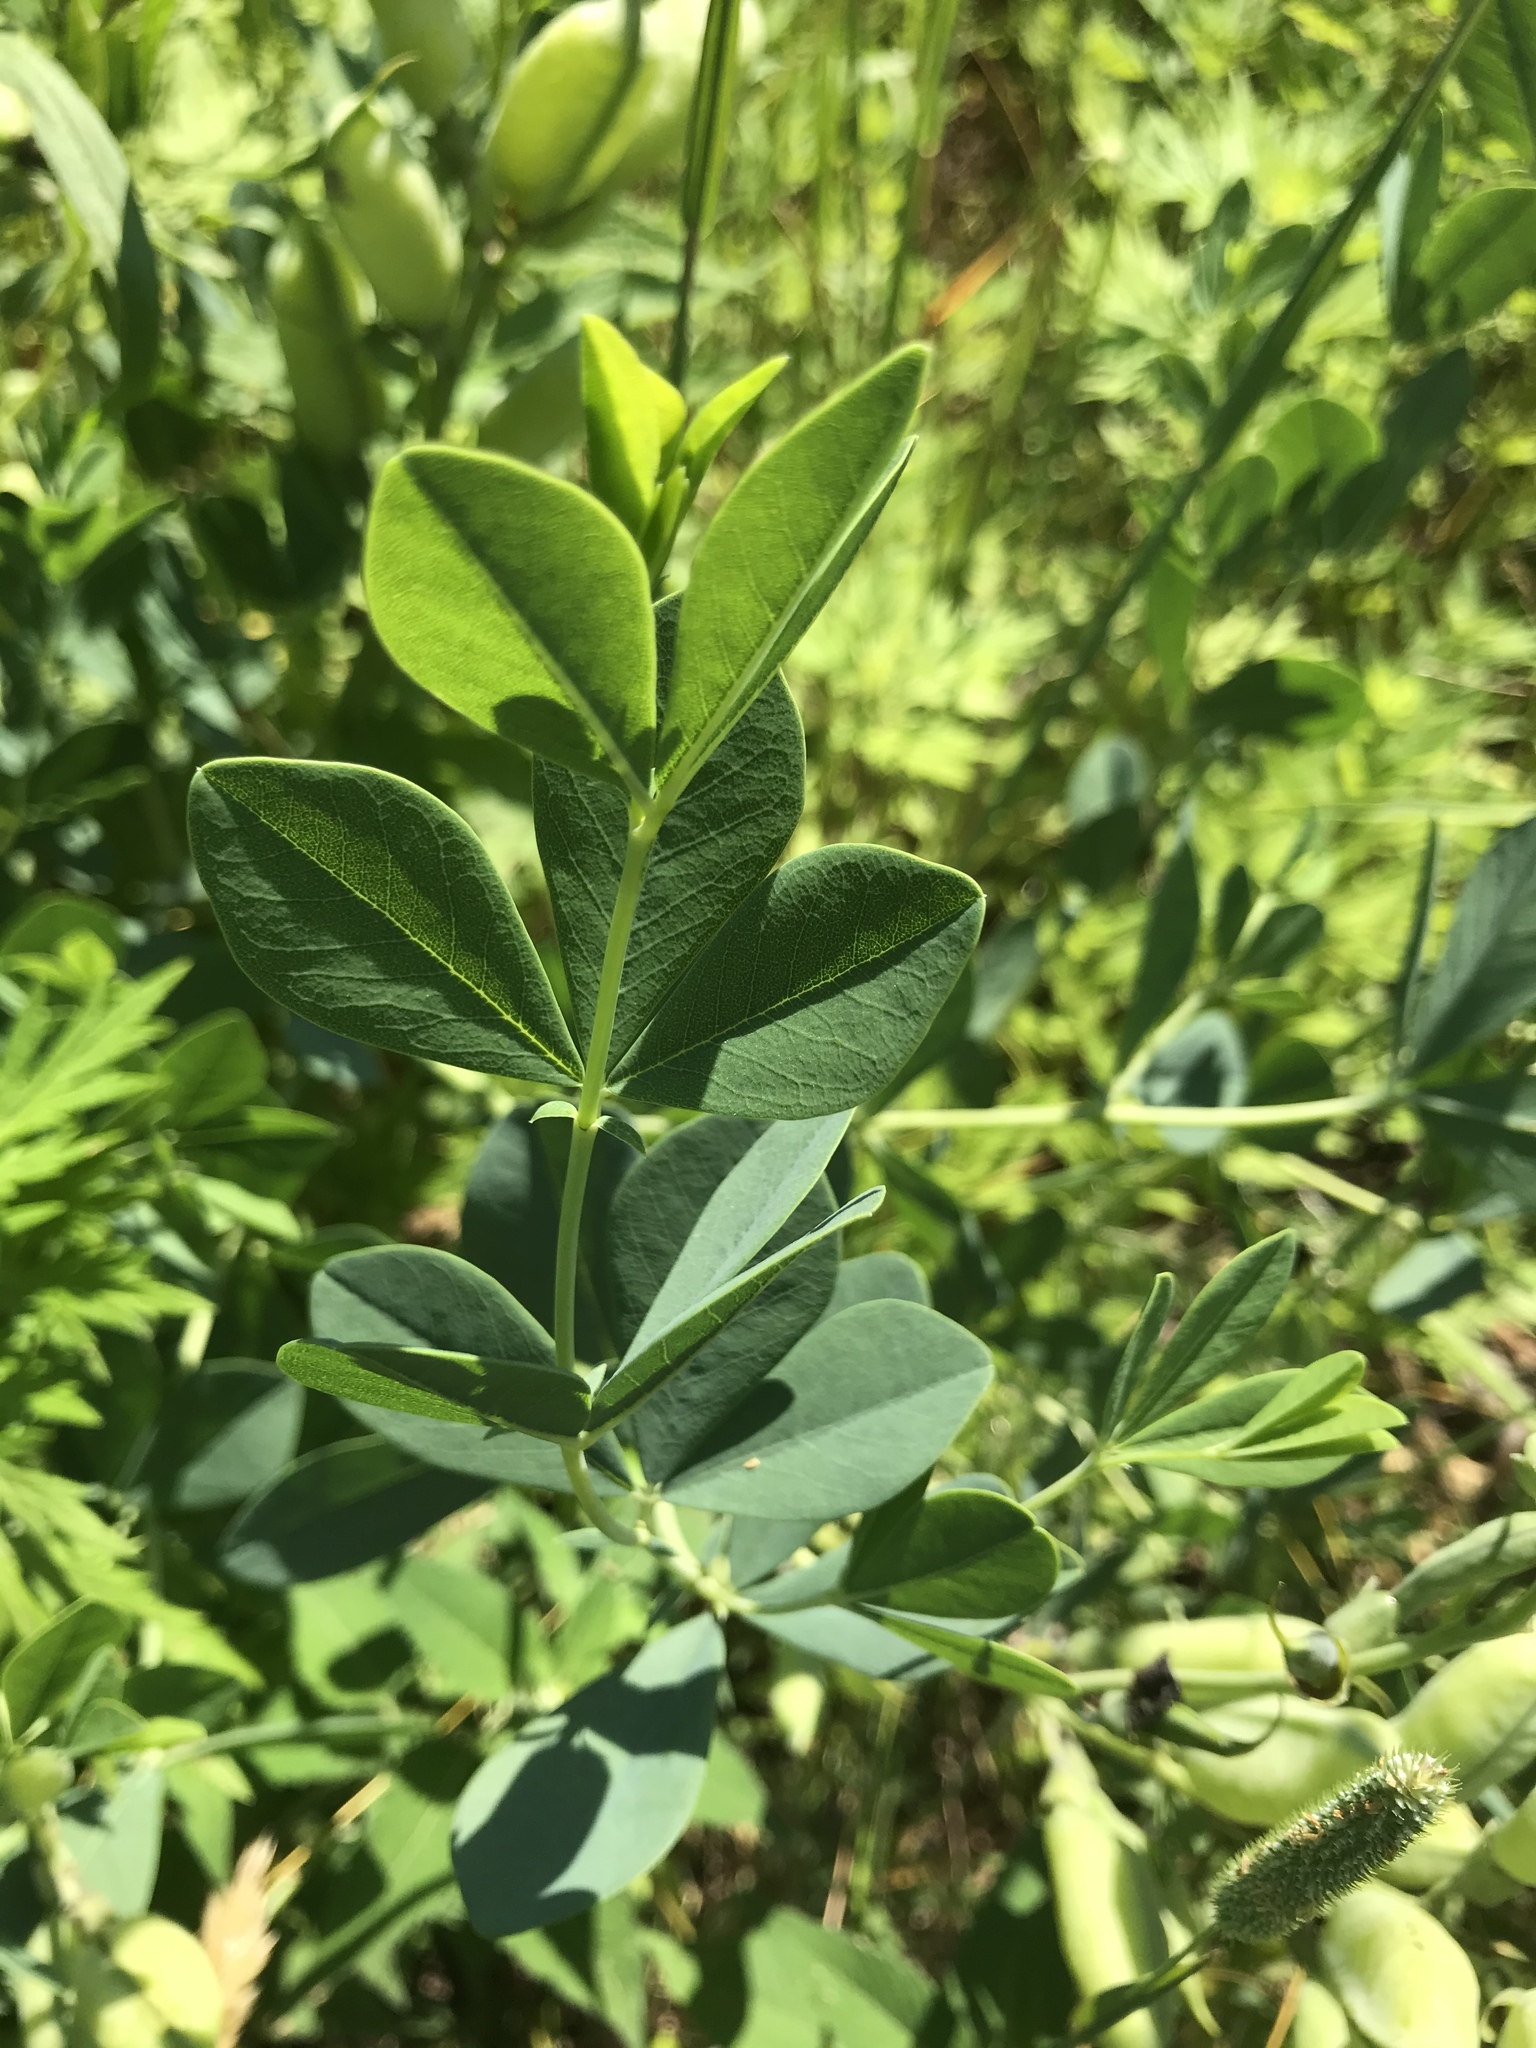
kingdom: Plantae
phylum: Tracheophyta
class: Magnoliopsida
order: Fabales
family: Fabaceae
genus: Baptisia
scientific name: Baptisia australis
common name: Blue false indigo
